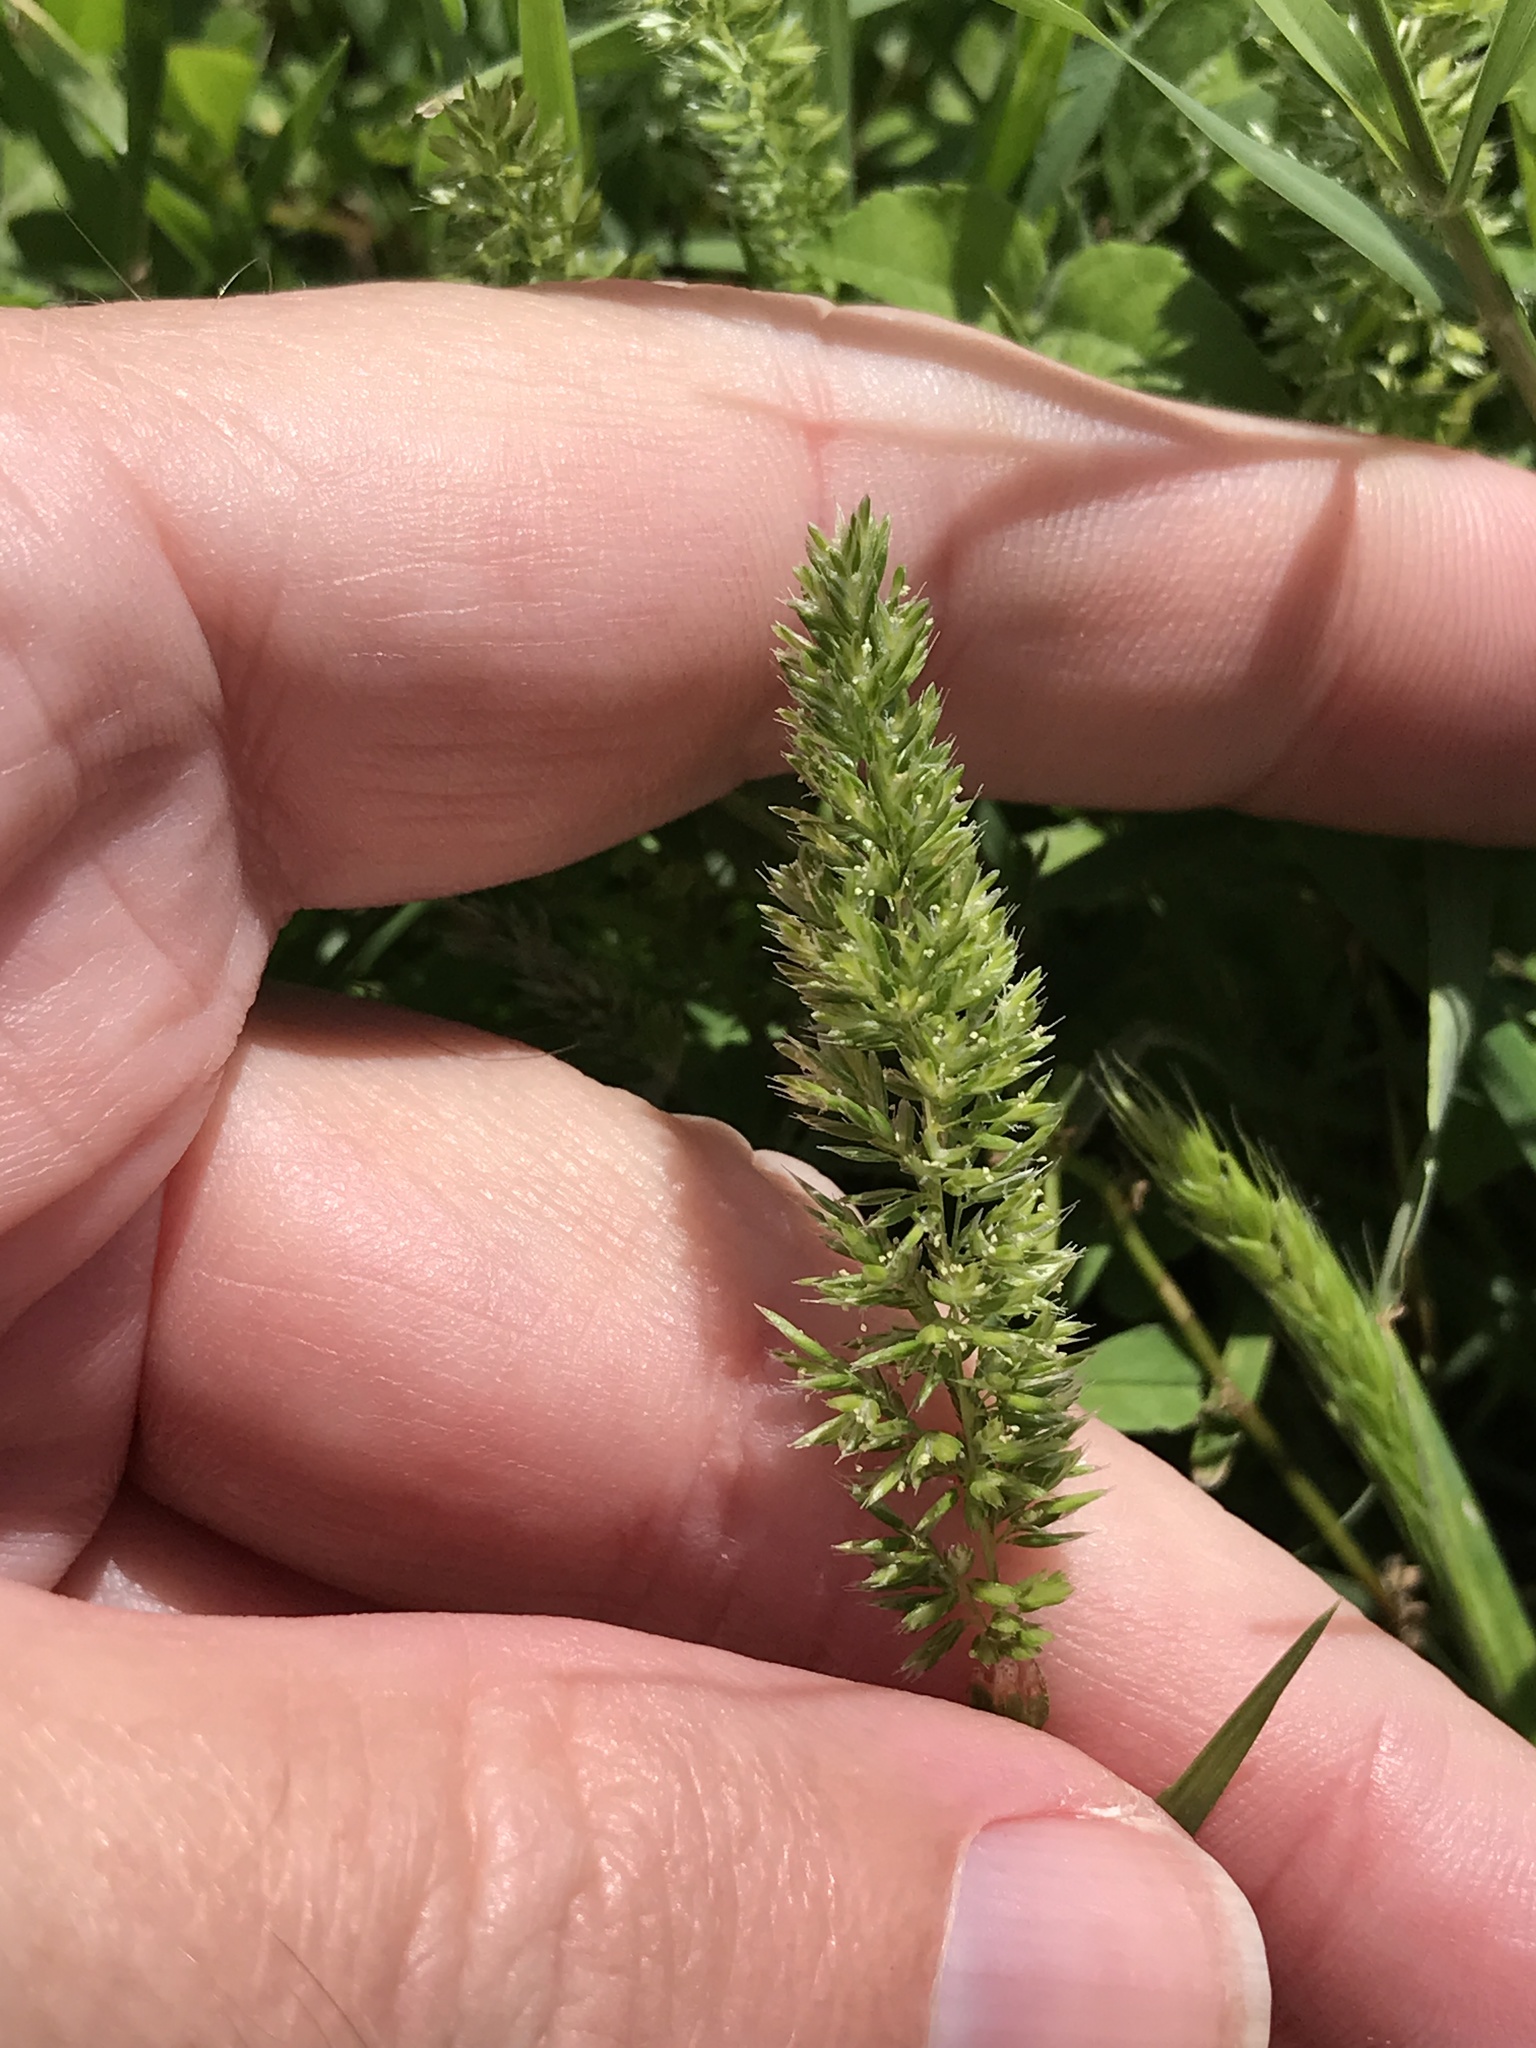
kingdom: Plantae
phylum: Tracheophyta
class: Liliopsida
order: Poales
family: Poaceae
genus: Rostraria
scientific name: Rostraria cristata
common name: Mediterranean hair-grass
